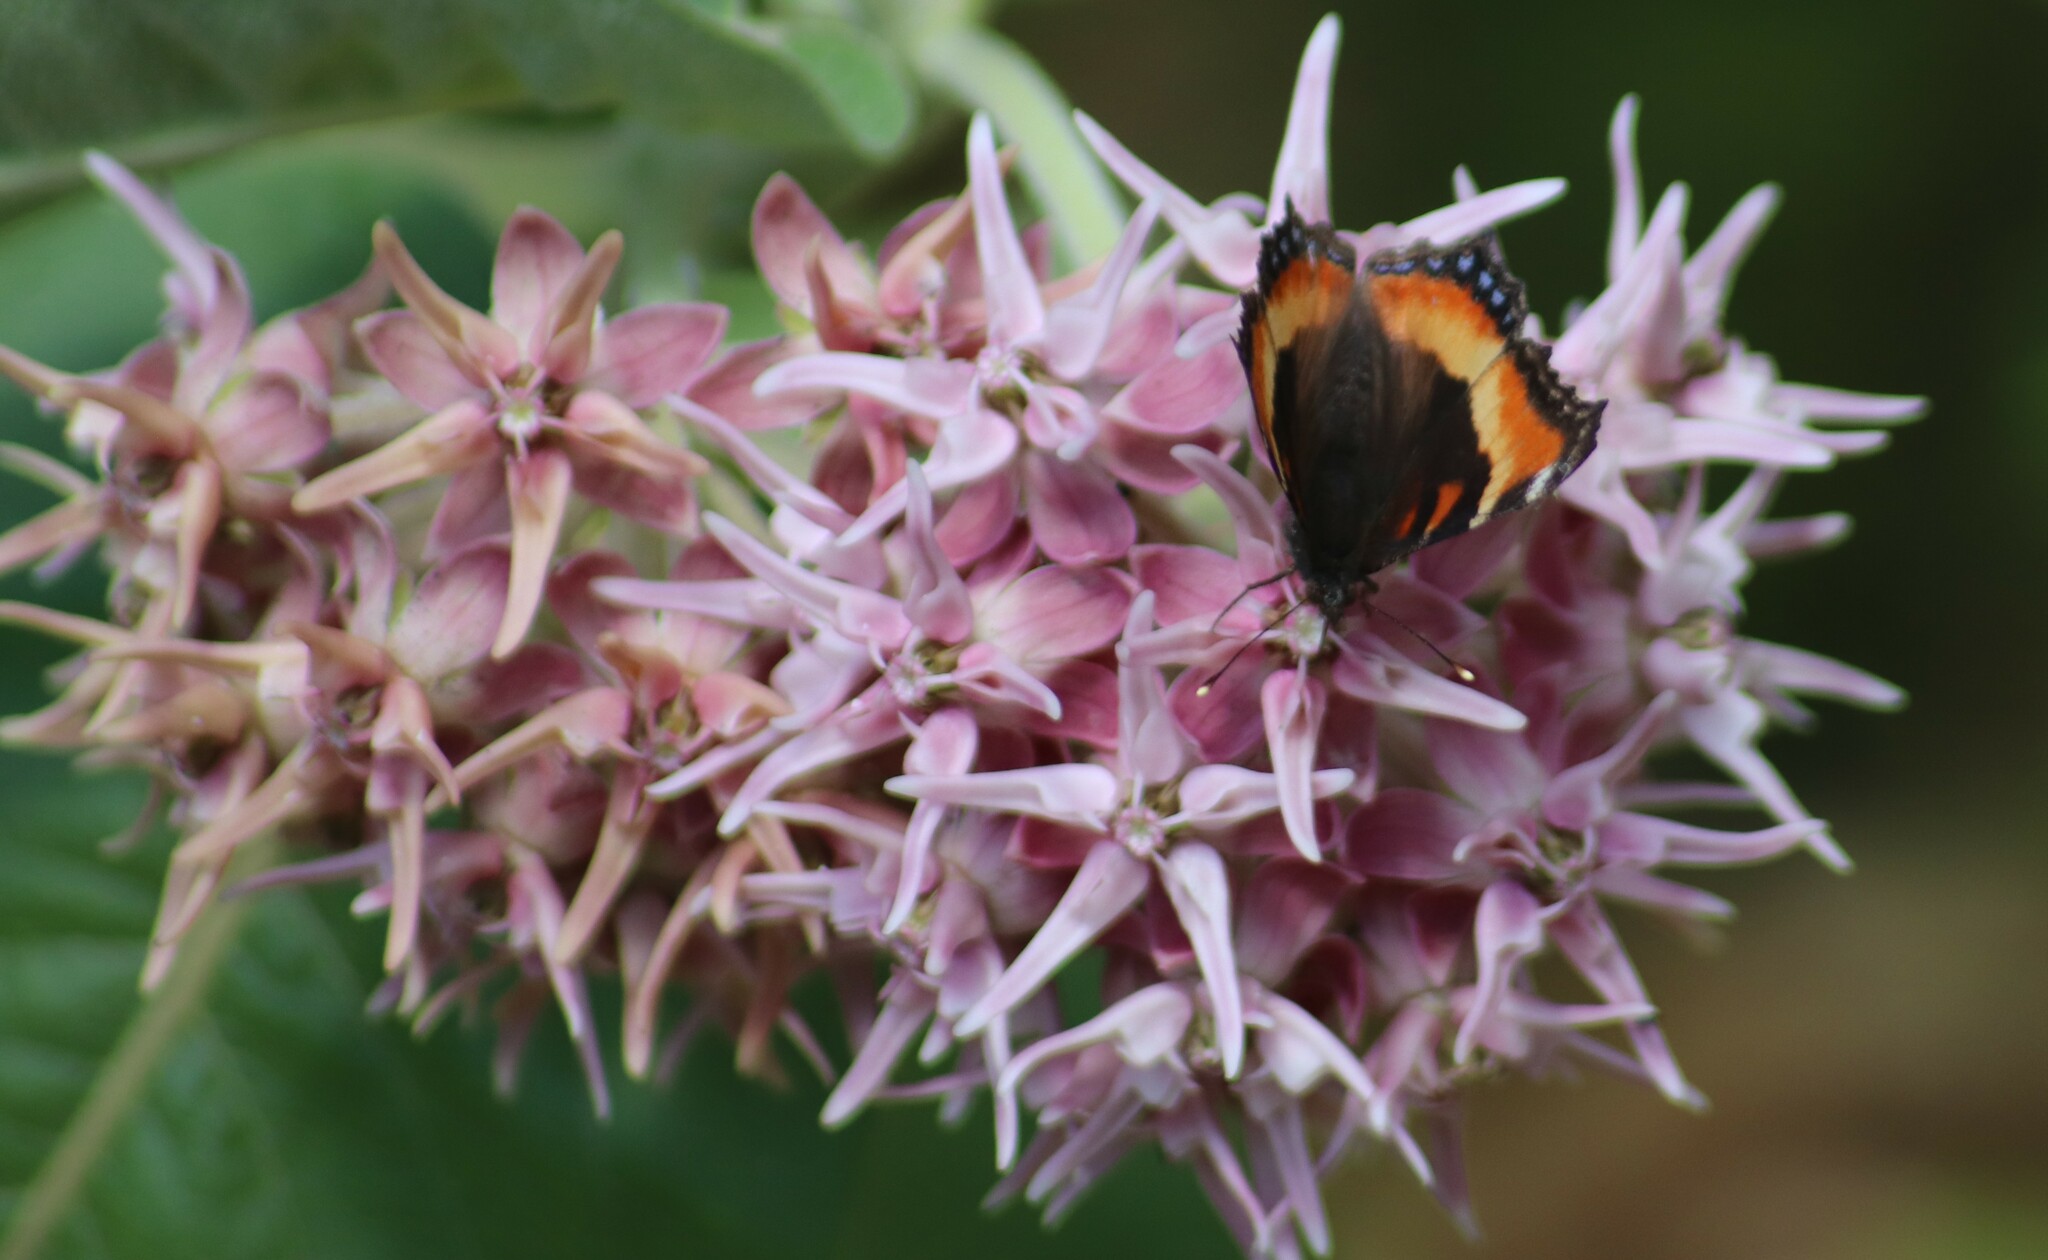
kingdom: Animalia
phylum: Arthropoda
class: Insecta
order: Lepidoptera
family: Nymphalidae
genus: Aglais
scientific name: Aglais milberti
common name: Milbert's tortoiseshell
